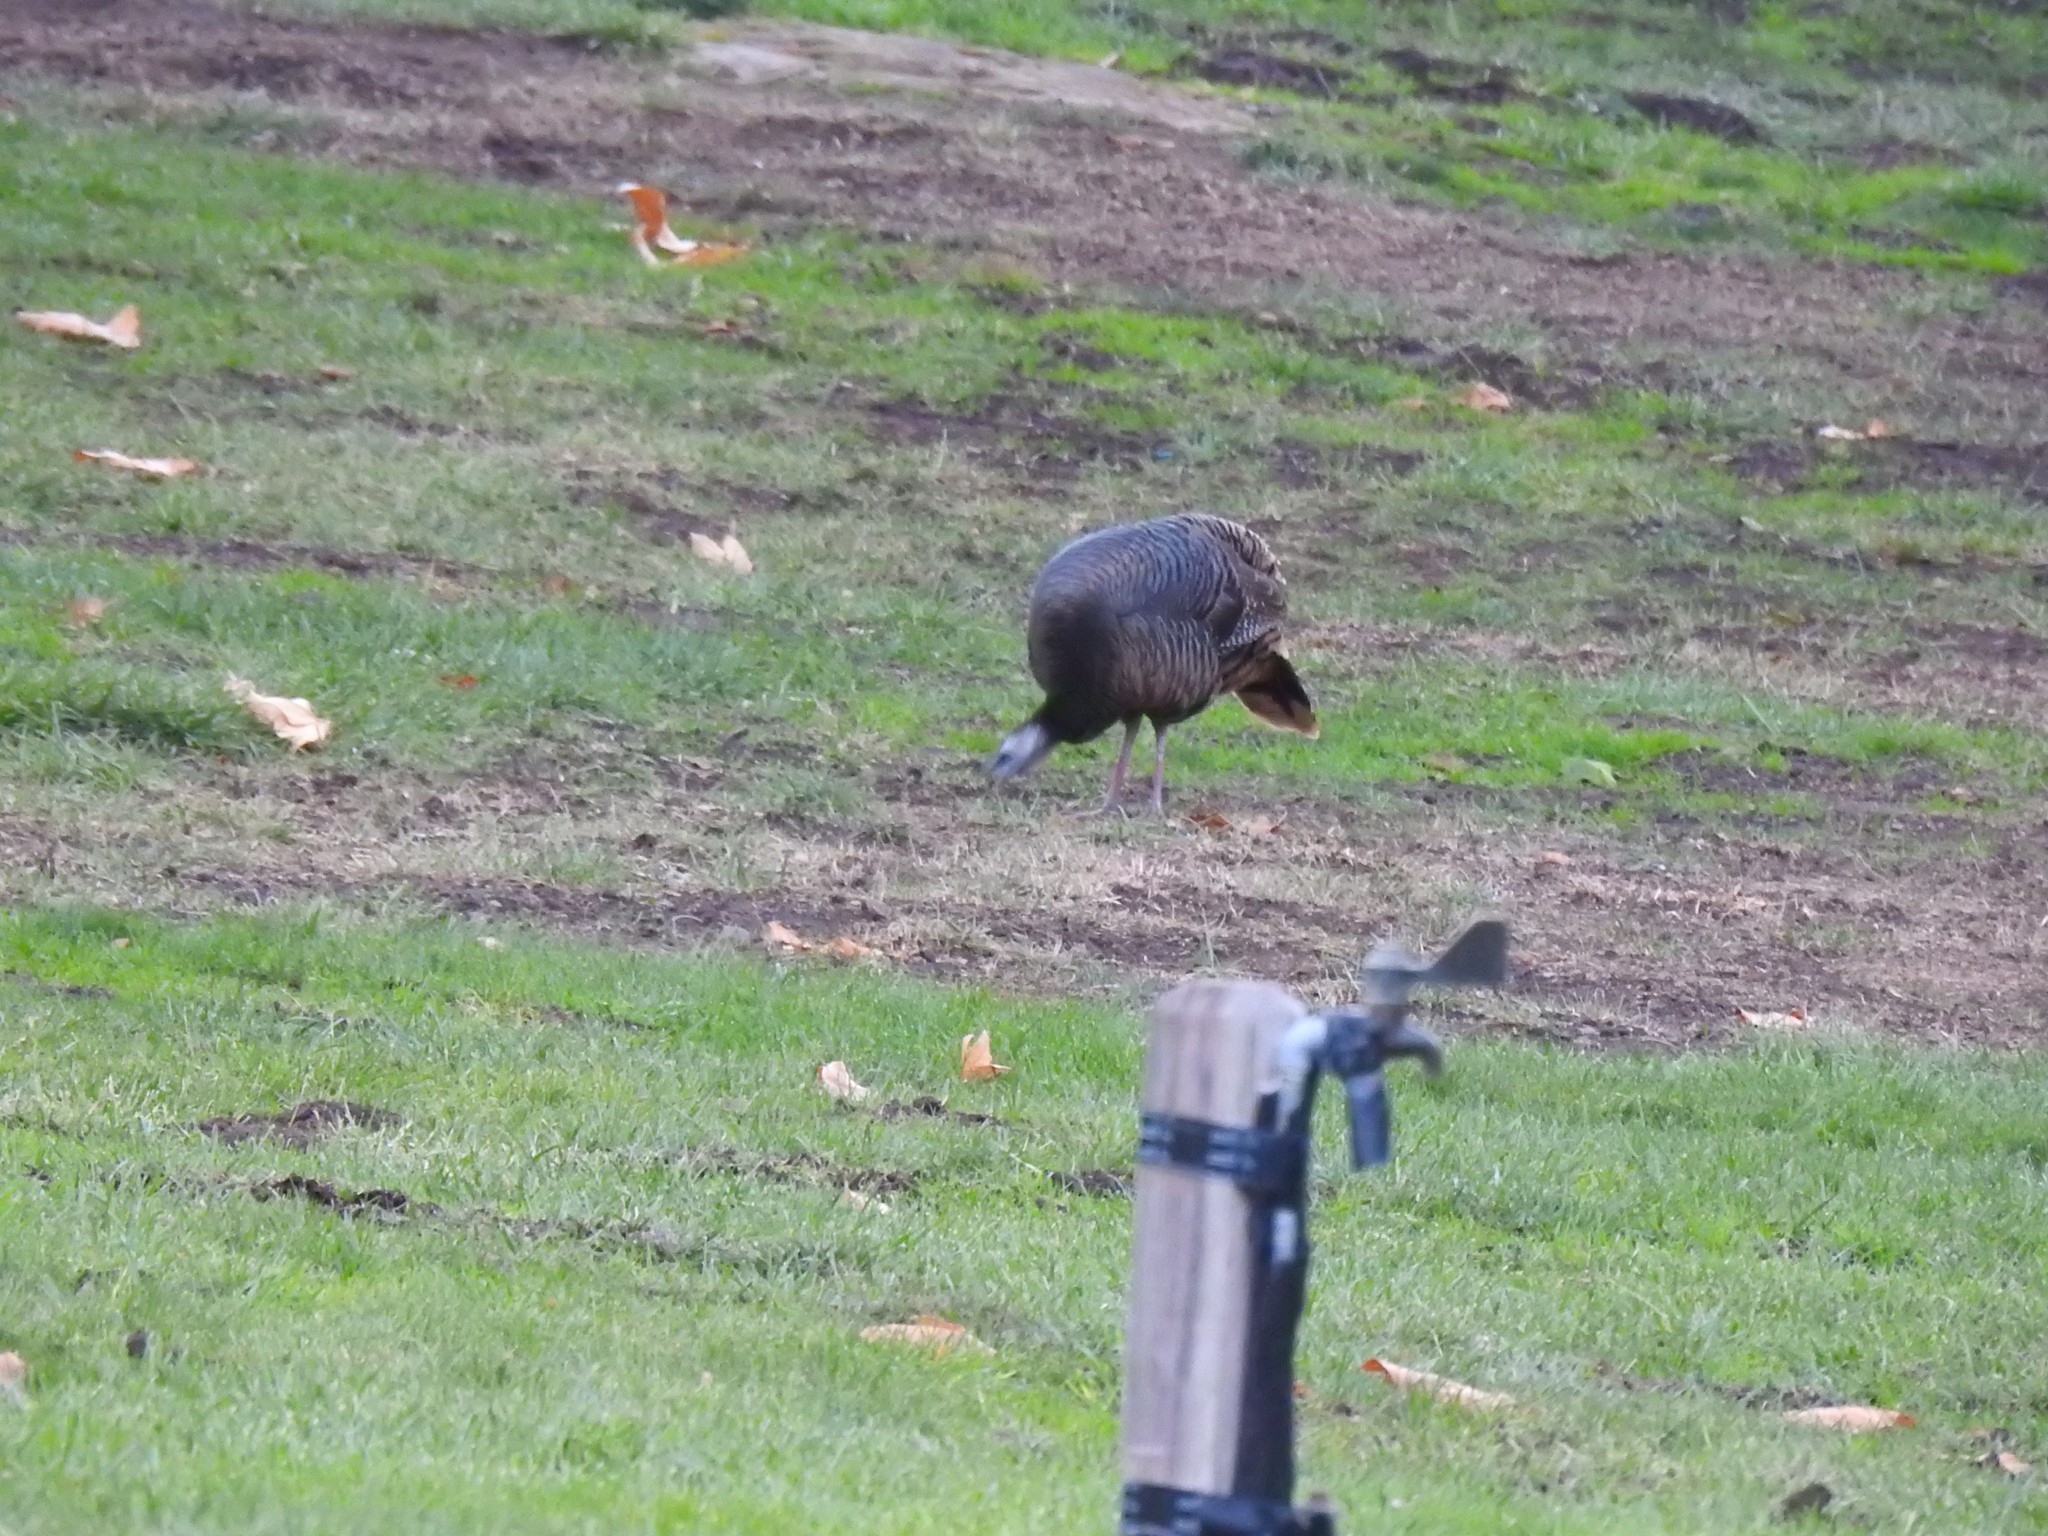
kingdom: Animalia
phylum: Chordata
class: Aves
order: Galliformes
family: Phasianidae
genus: Meleagris
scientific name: Meleagris gallopavo
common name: Wild turkey
